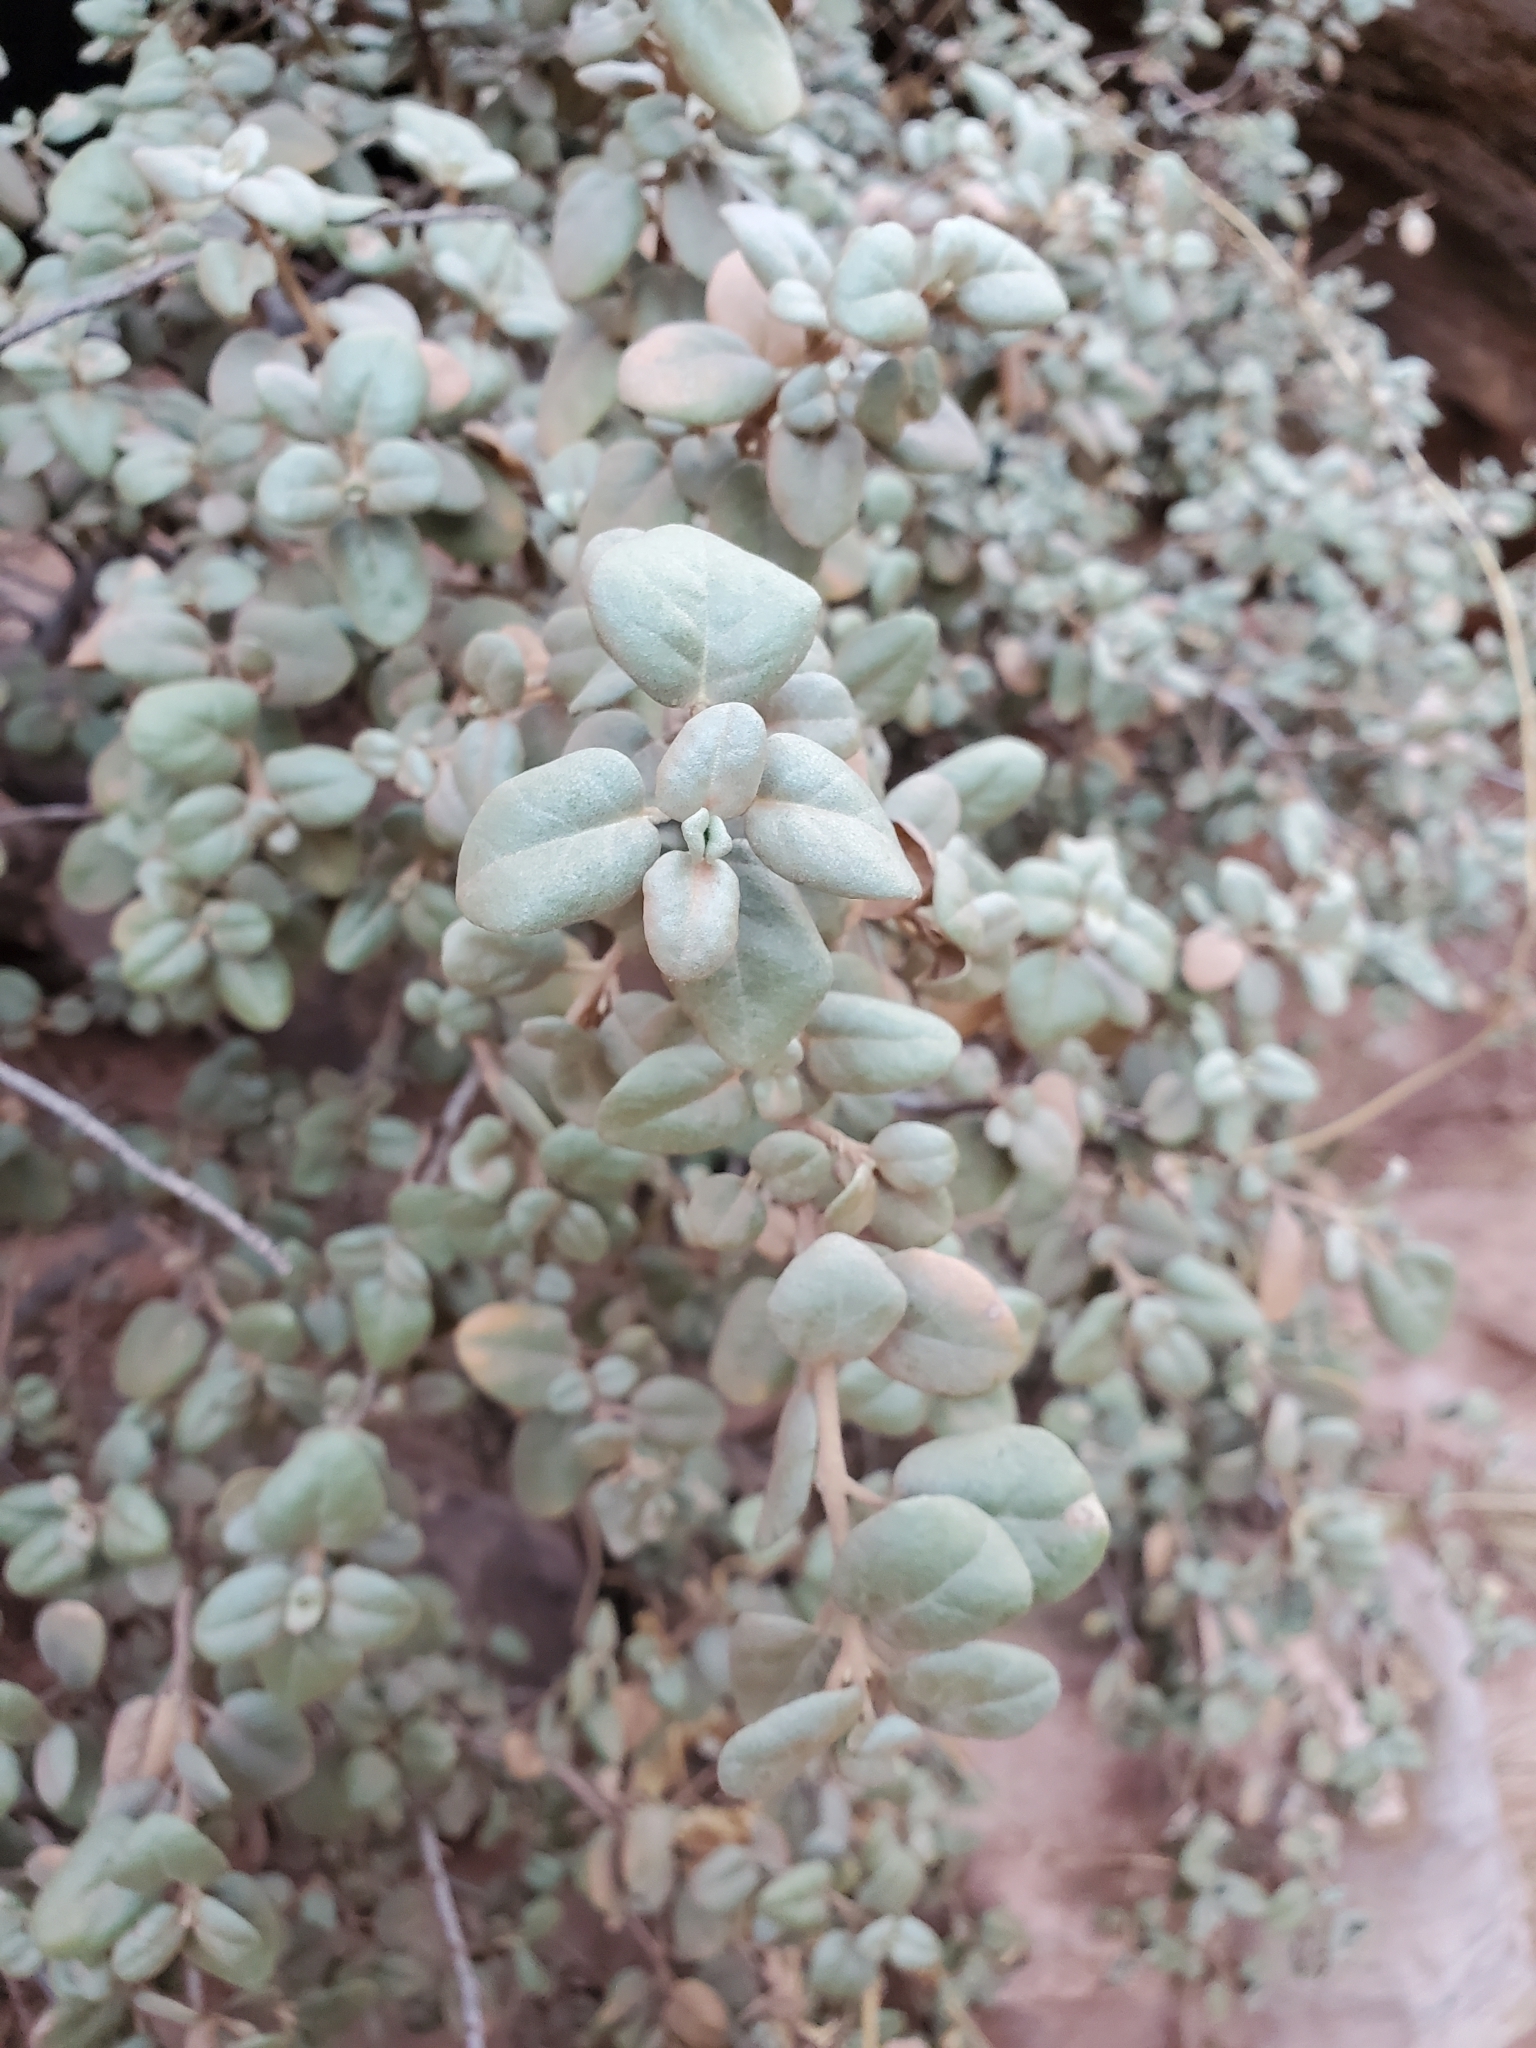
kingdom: Plantae
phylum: Tracheophyta
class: Magnoliopsida
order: Rosales
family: Elaeagnaceae
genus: Shepherdia
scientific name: Shepherdia rotundifolia
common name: Silverscale
